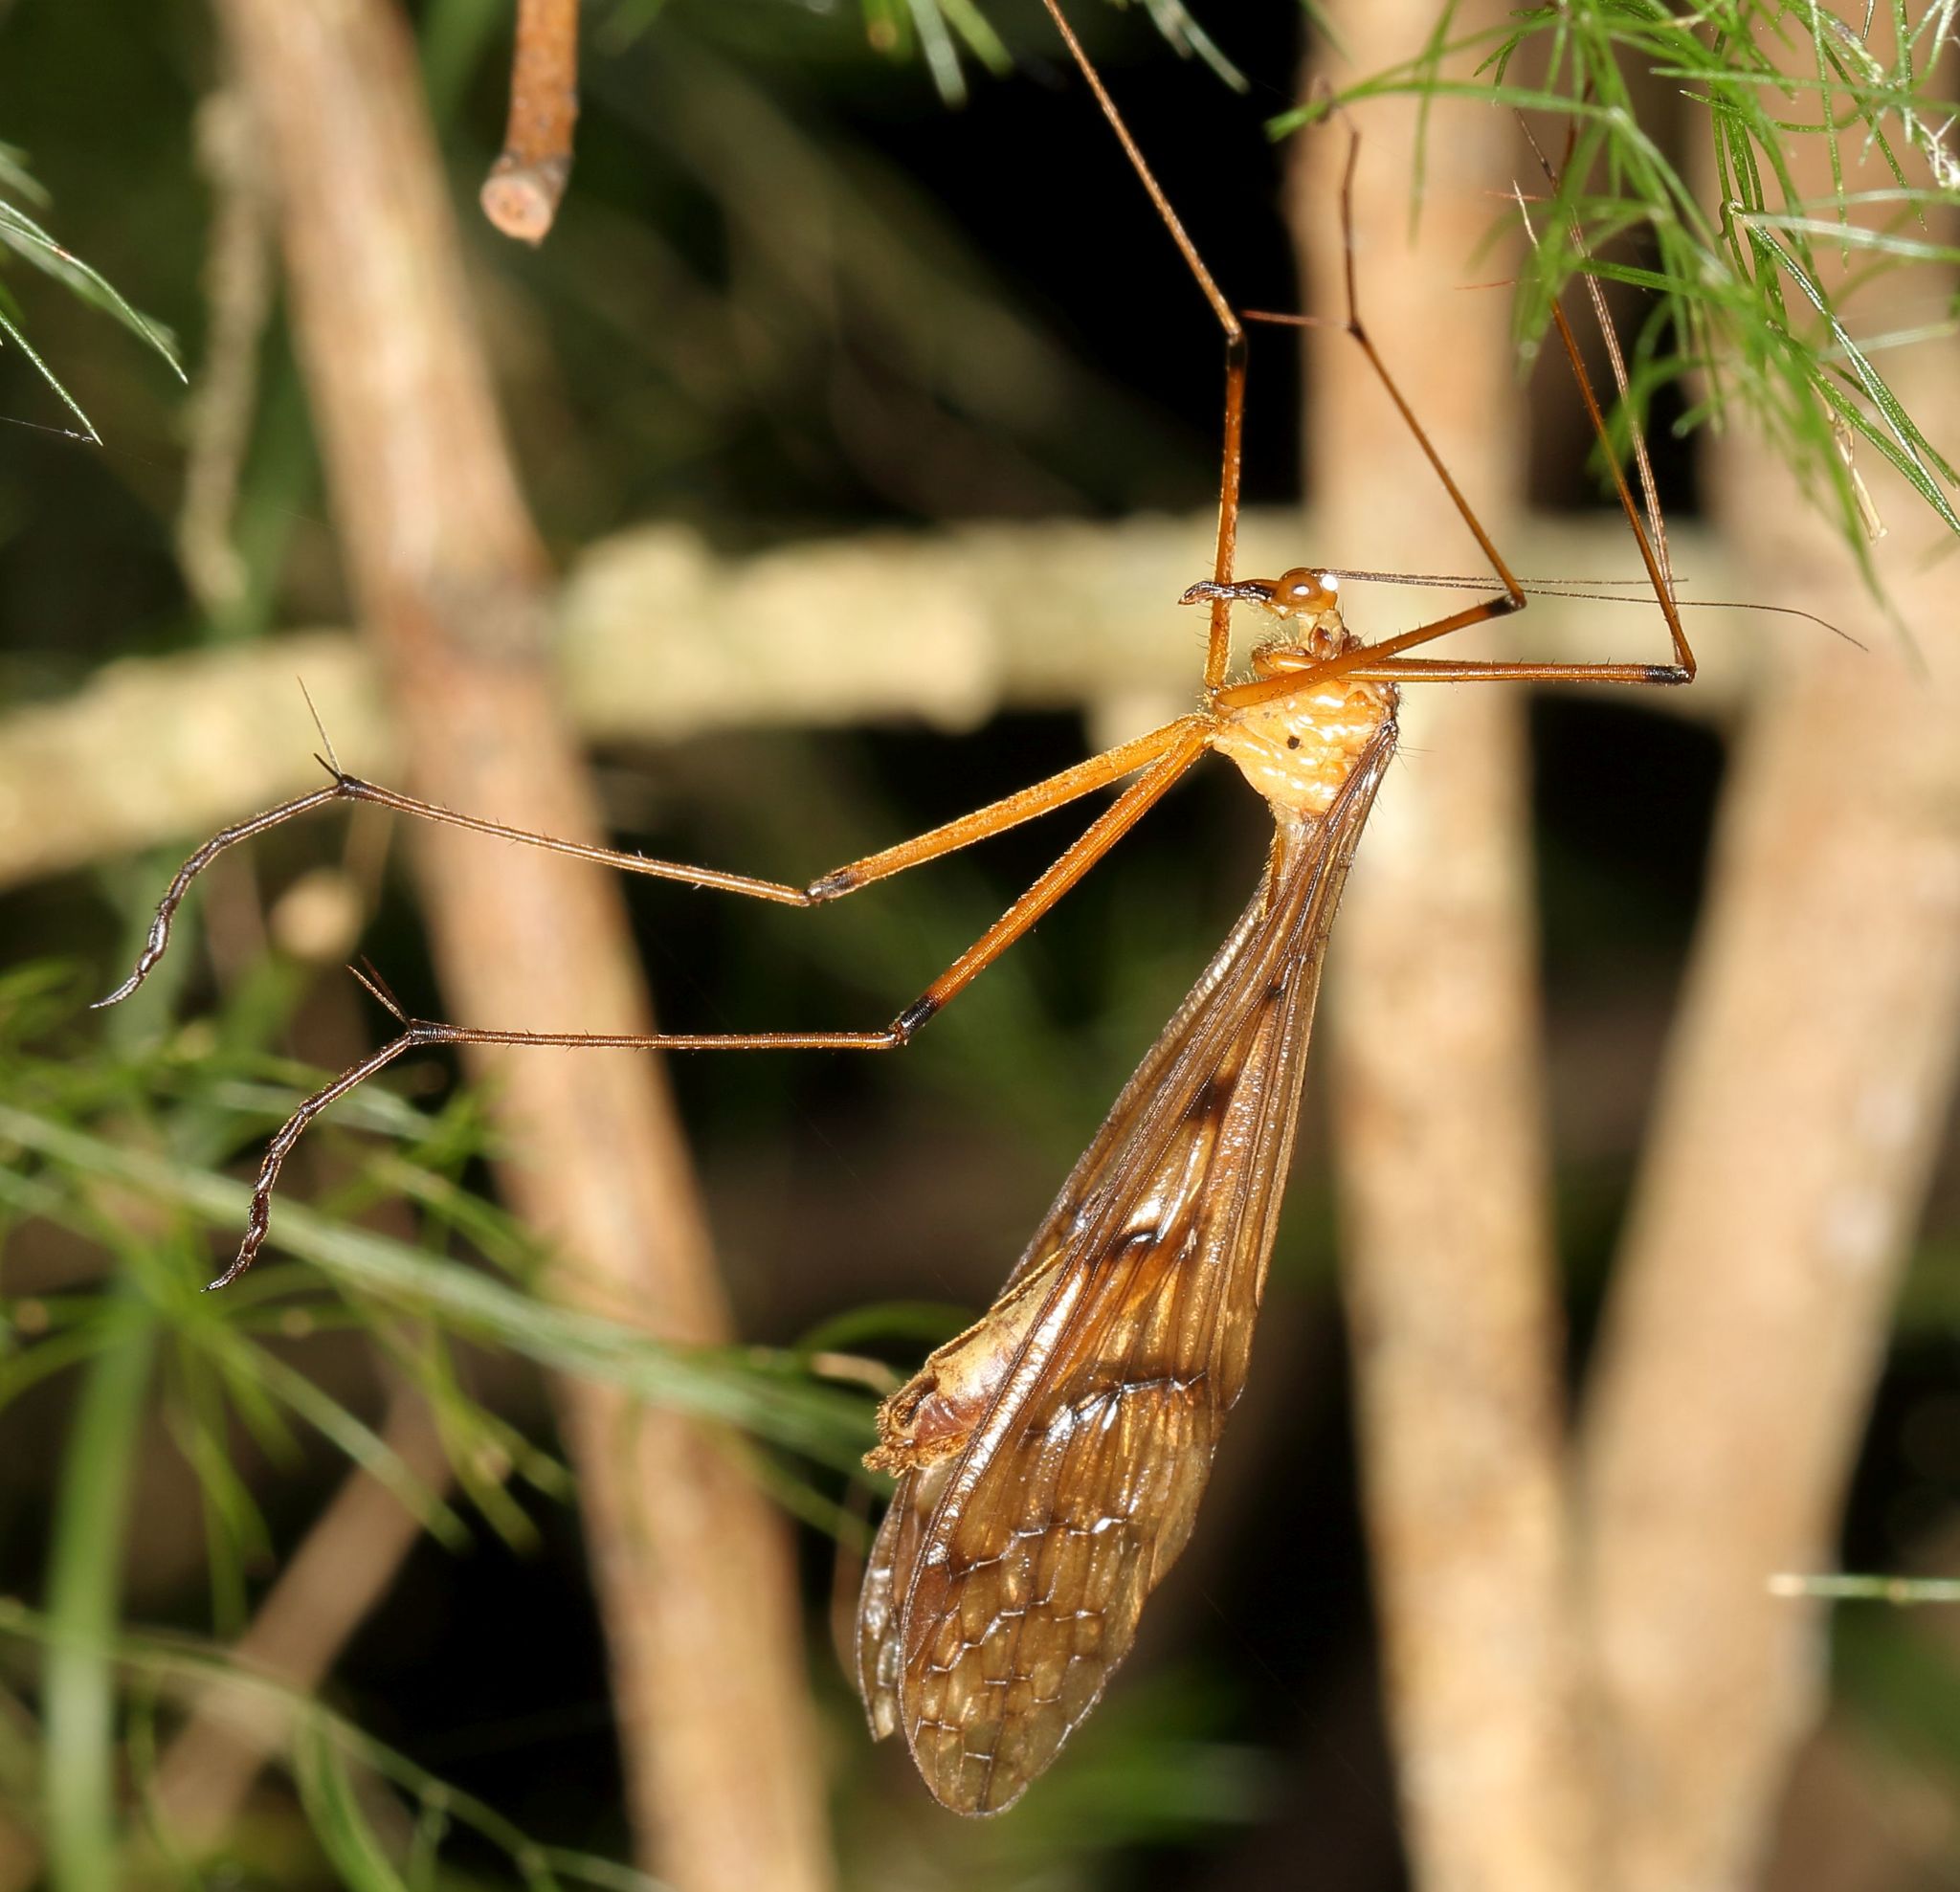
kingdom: Animalia
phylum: Arthropoda
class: Insecta
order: Mecoptera
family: Bittacidae
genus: Bittacus
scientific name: Bittacus selysi
